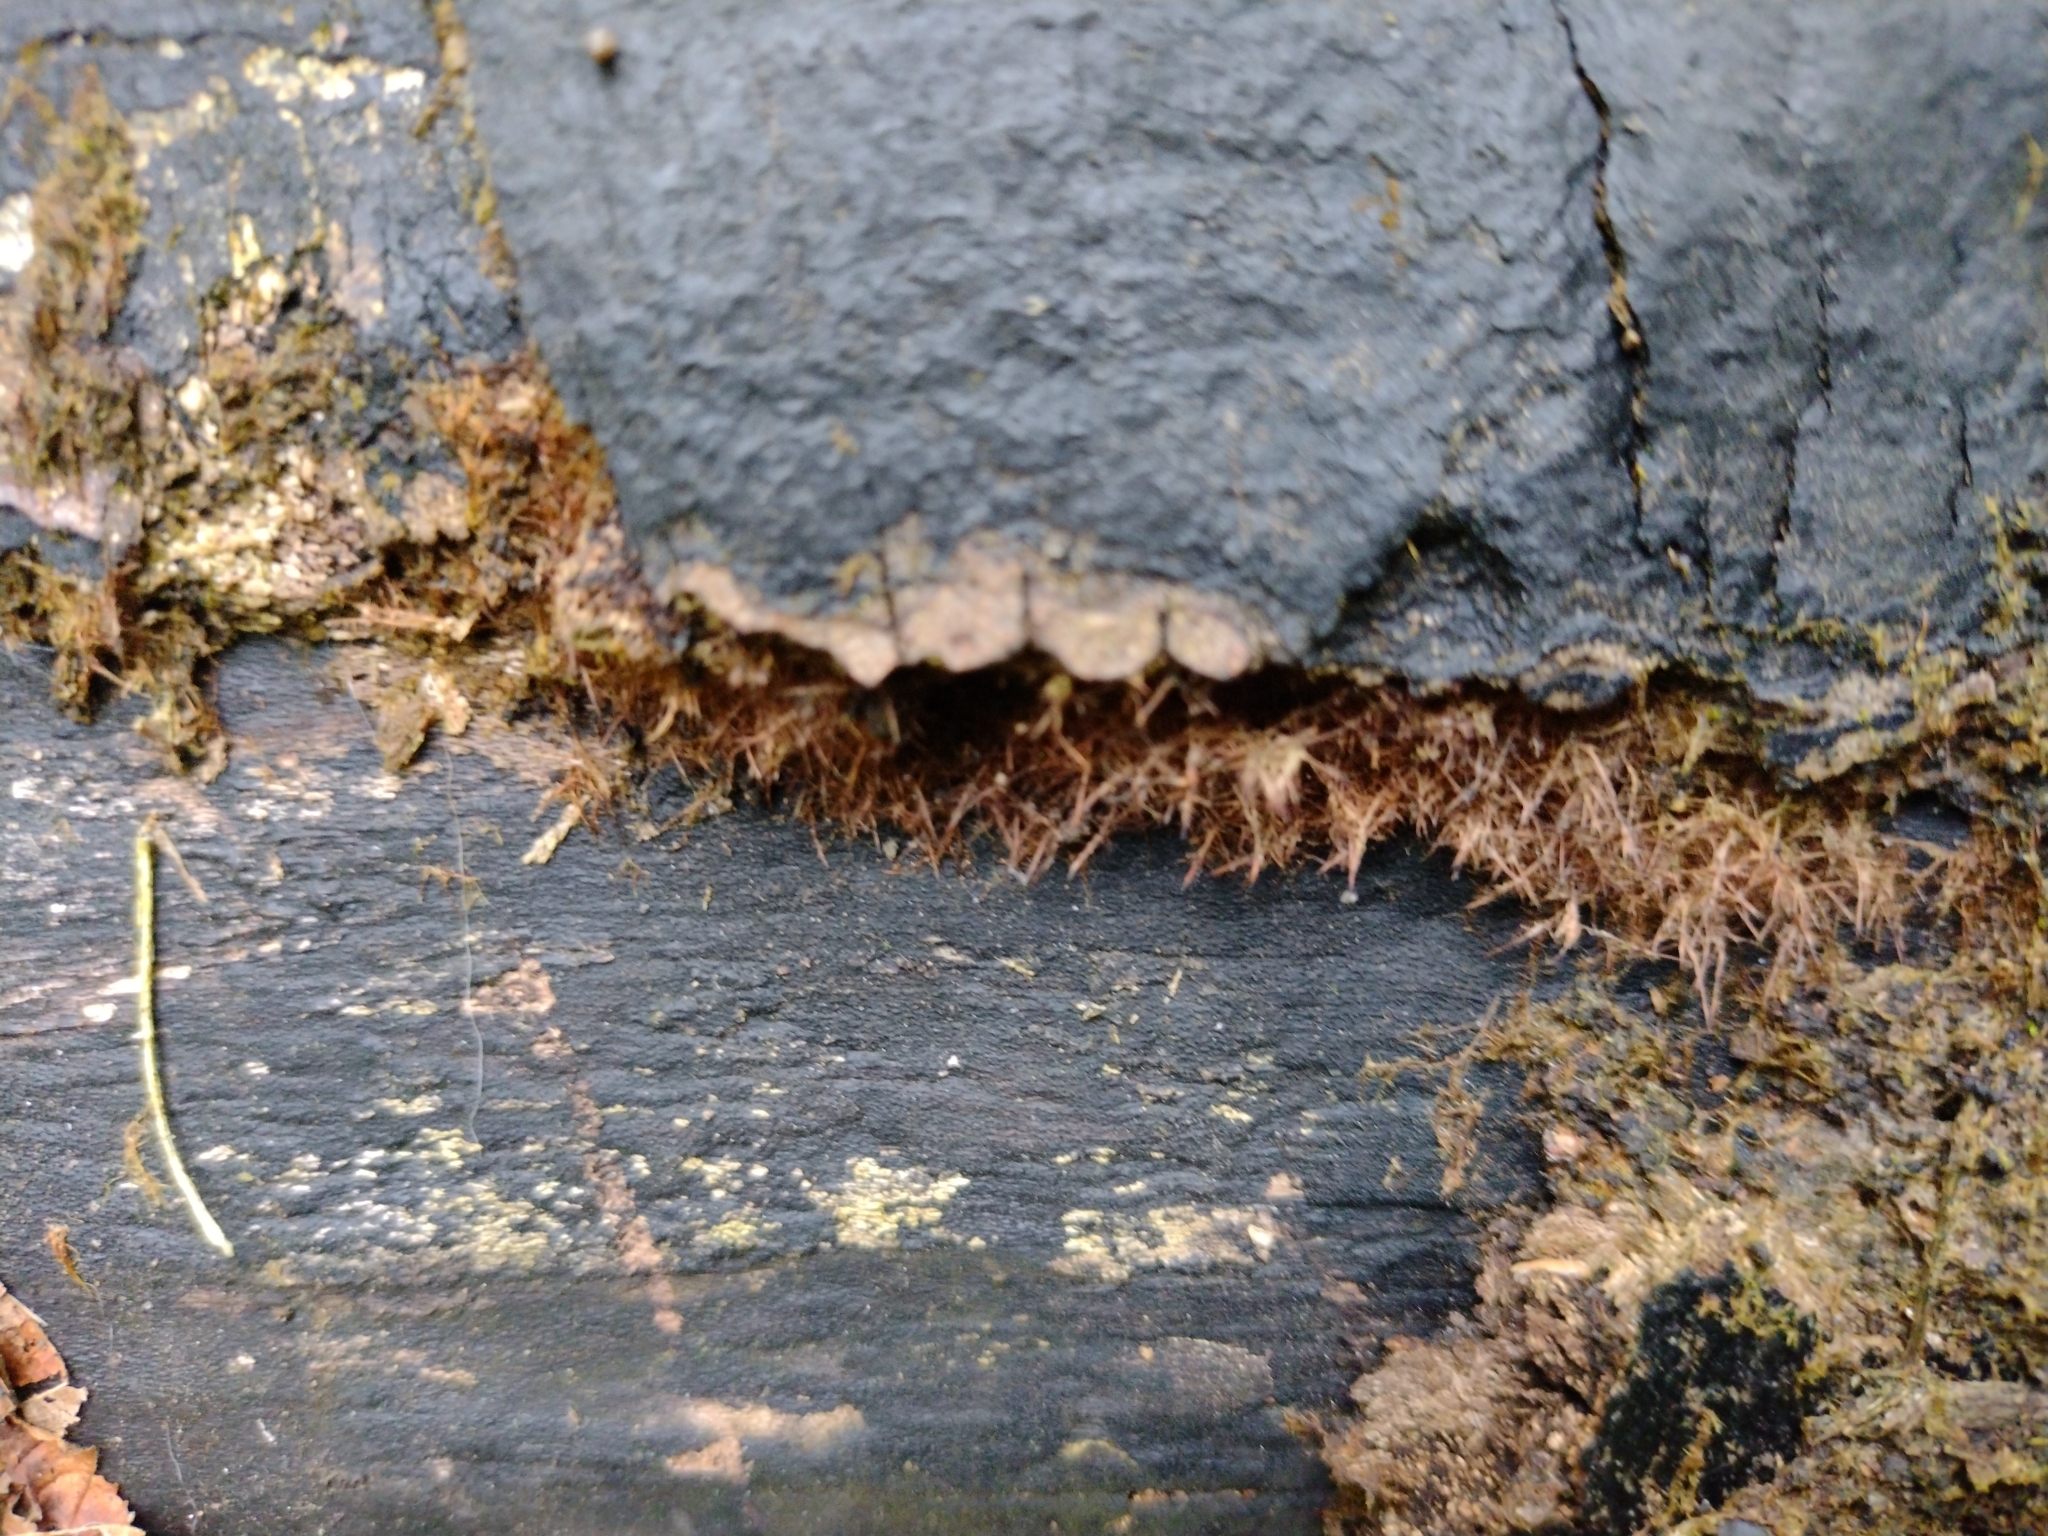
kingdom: Fungi
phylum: Basidiomycota
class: Agaricomycetes
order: Agaricales
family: Psathyrellaceae
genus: Coprinellus
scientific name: Coprinellus domesticus
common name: Firerug inkcap
